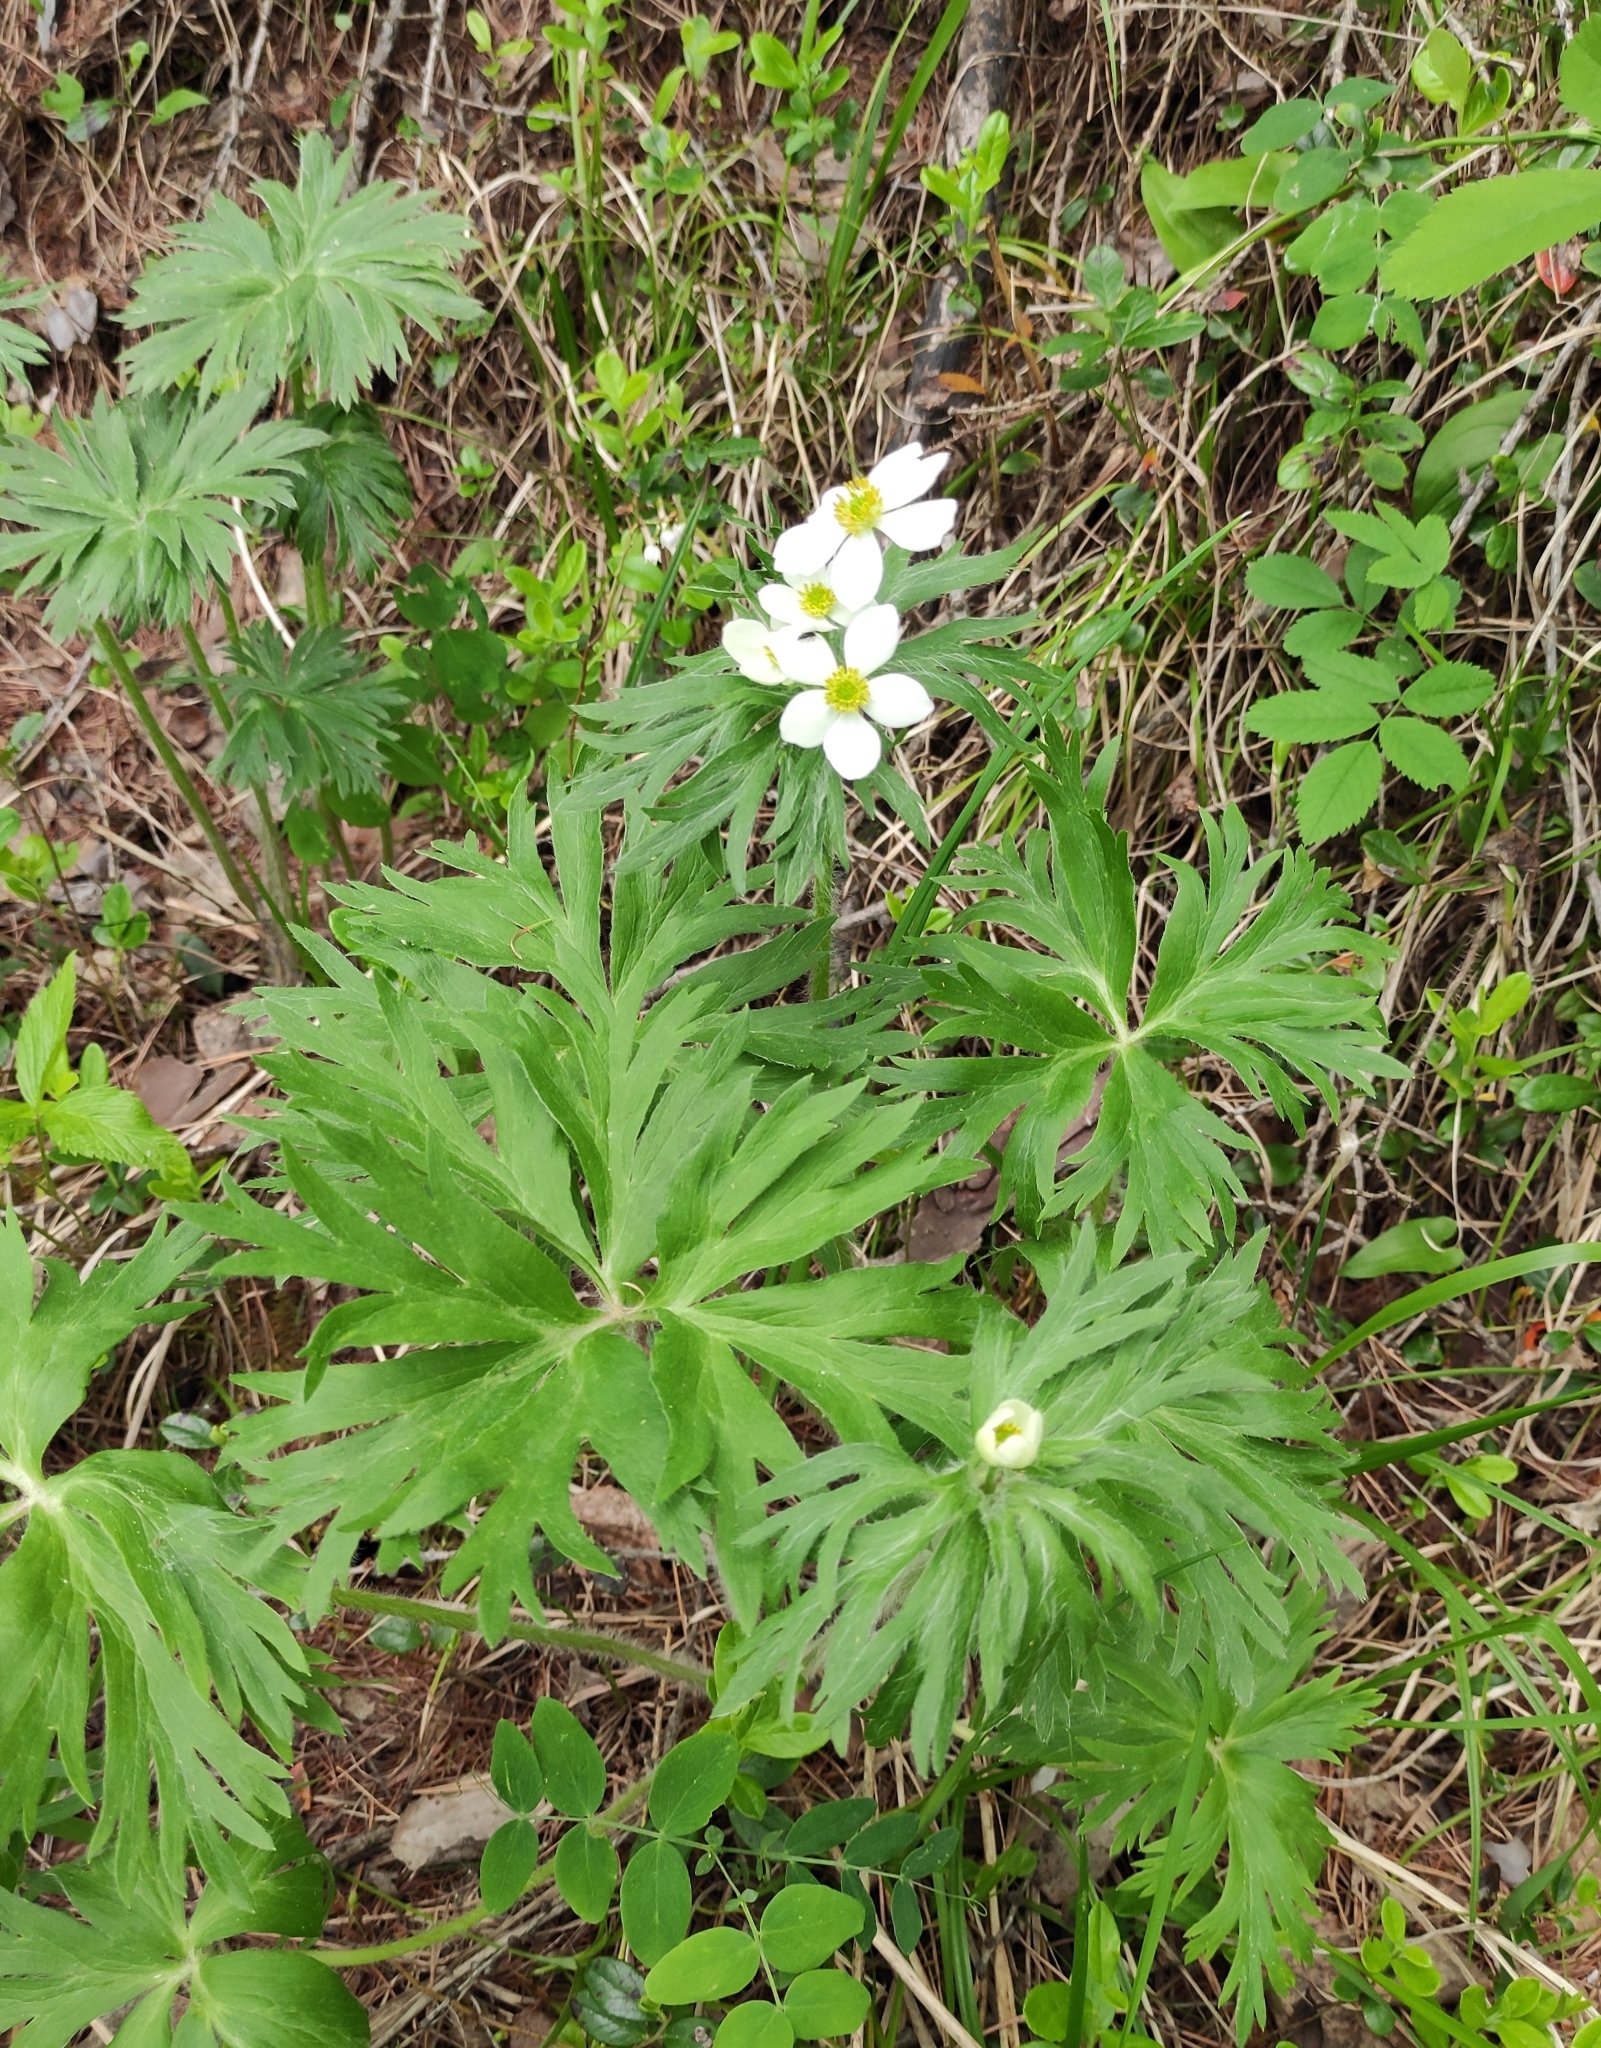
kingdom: Plantae
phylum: Tracheophyta
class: Magnoliopsida
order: Ranunculales
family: Ranunculaceae
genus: Anemonastrum
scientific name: Anemonastrum narcissiflorum
